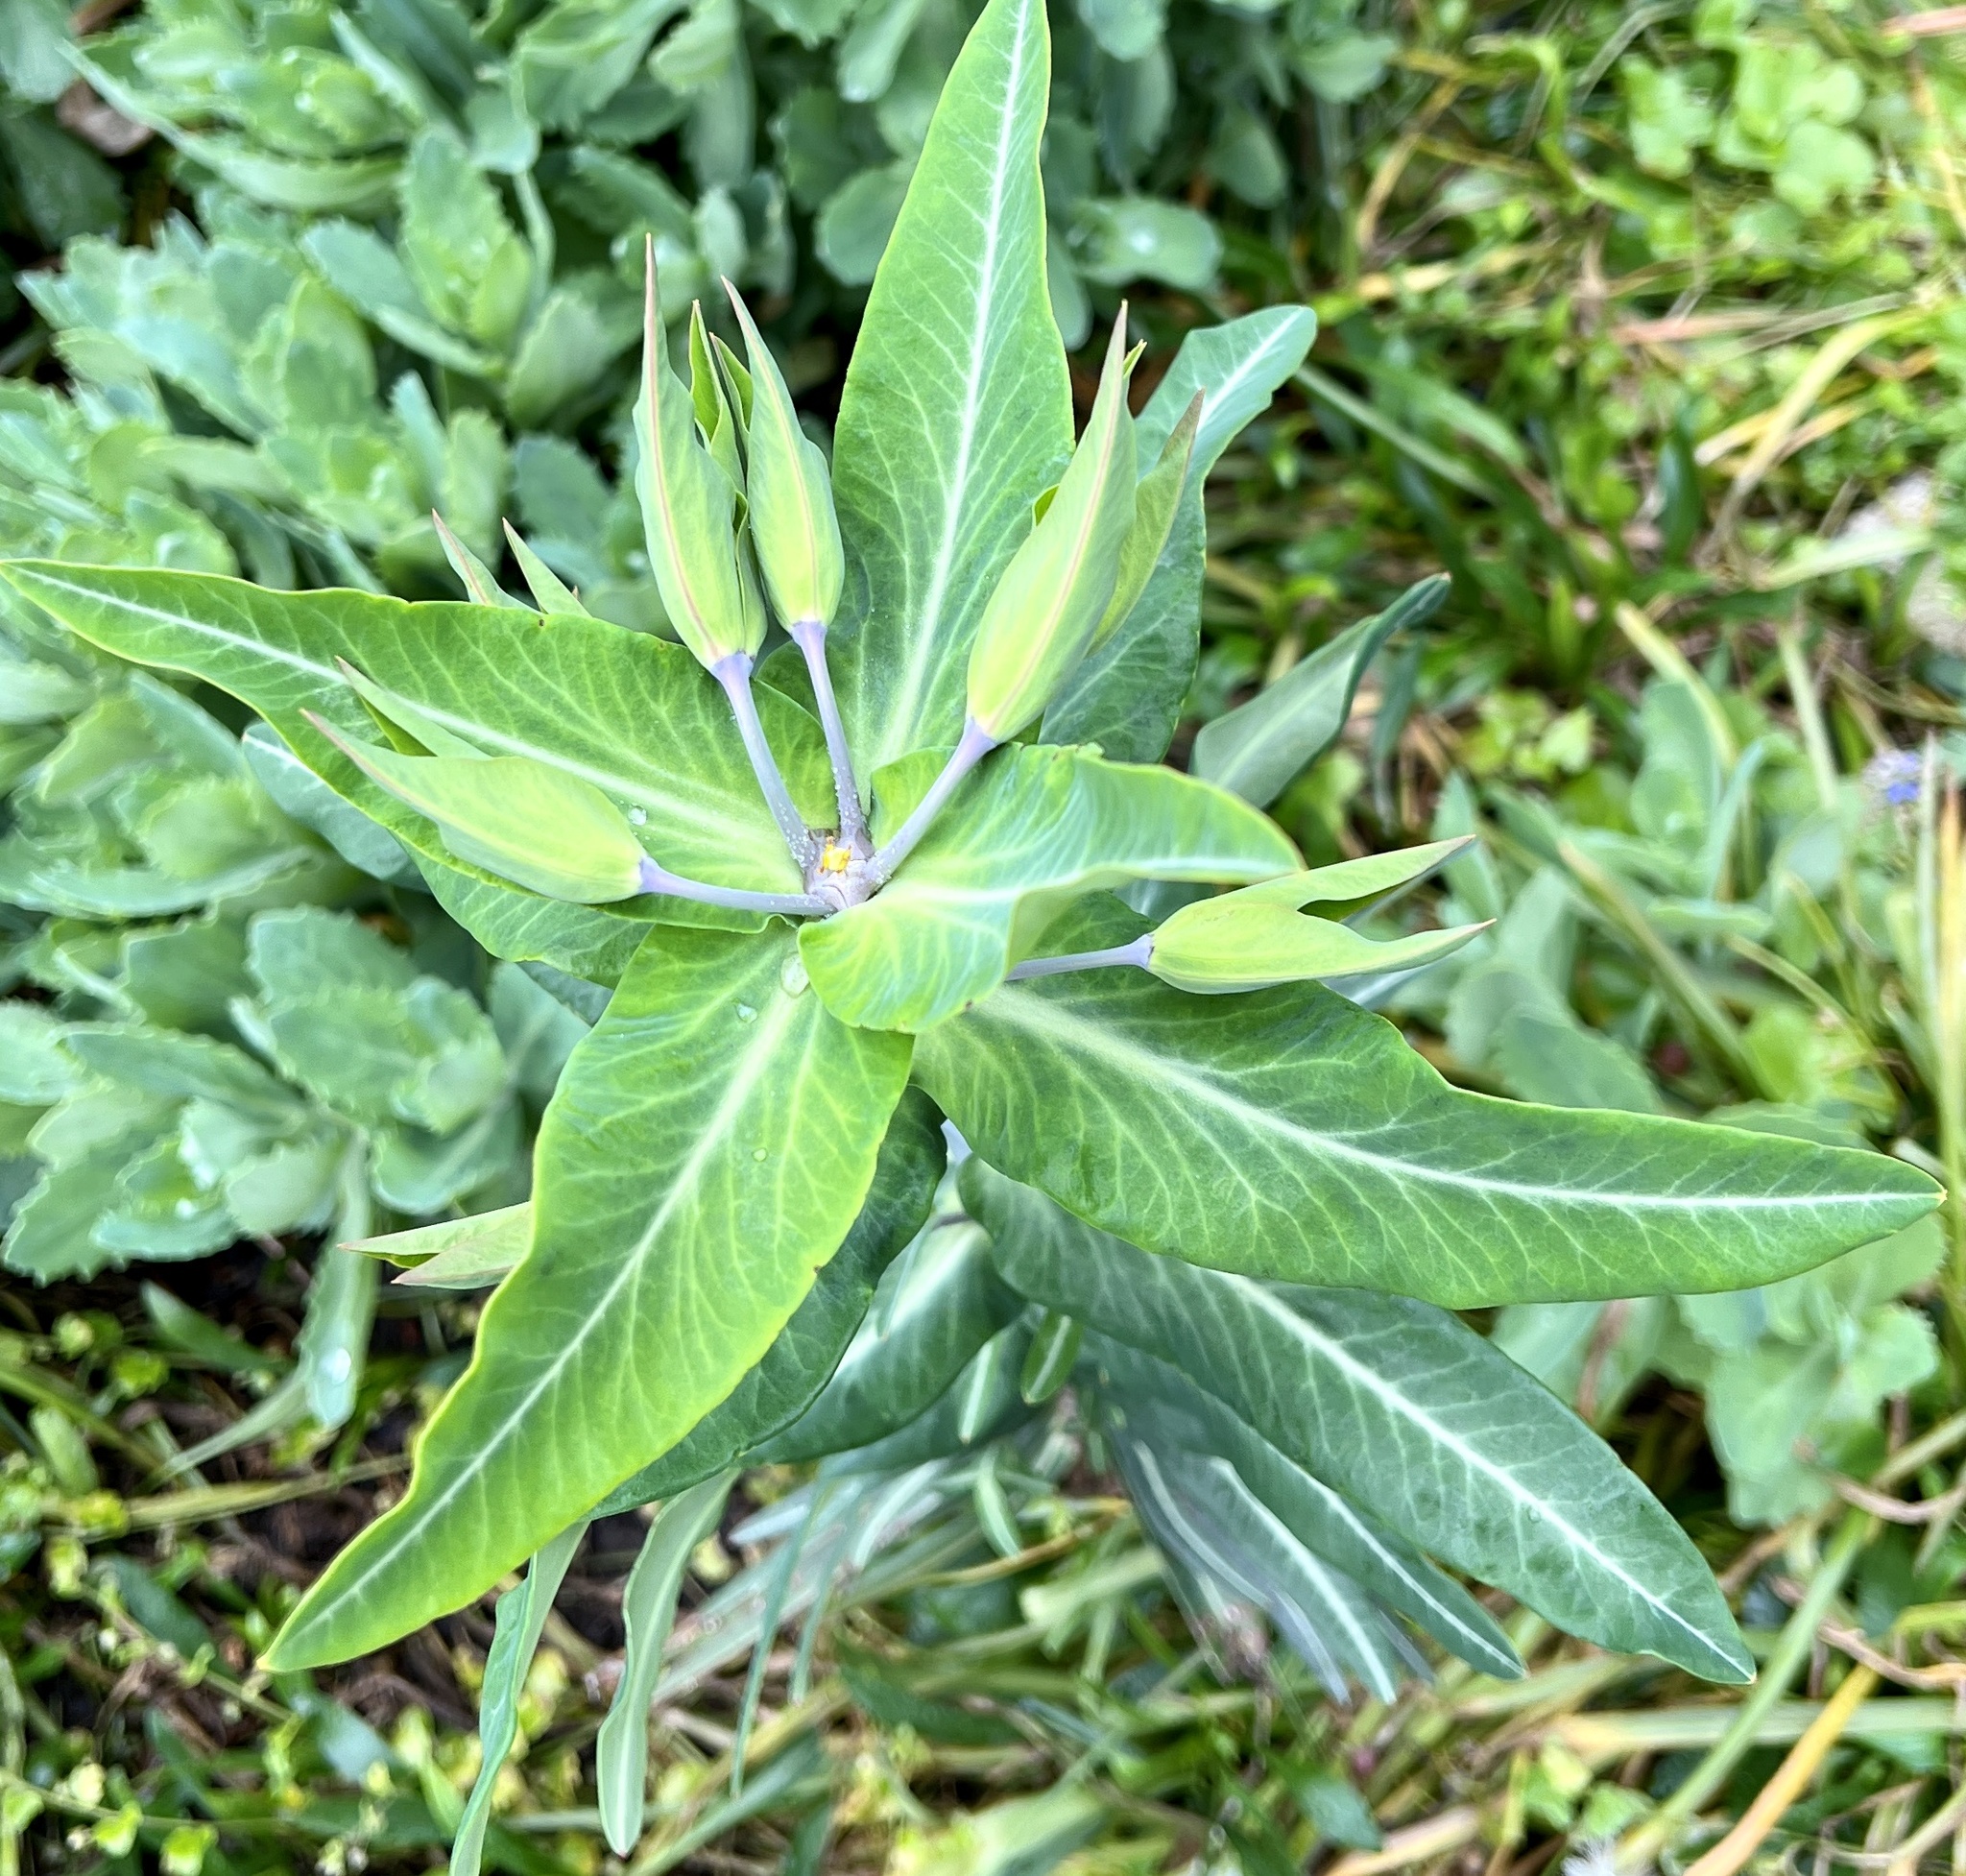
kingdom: Plantae
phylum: Tracheophyta
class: Magnoliopsida
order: Malpighiales
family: Euphorbiaceae
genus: Euphorbia
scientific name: Euphorbia lathyris
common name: Caper spurge
